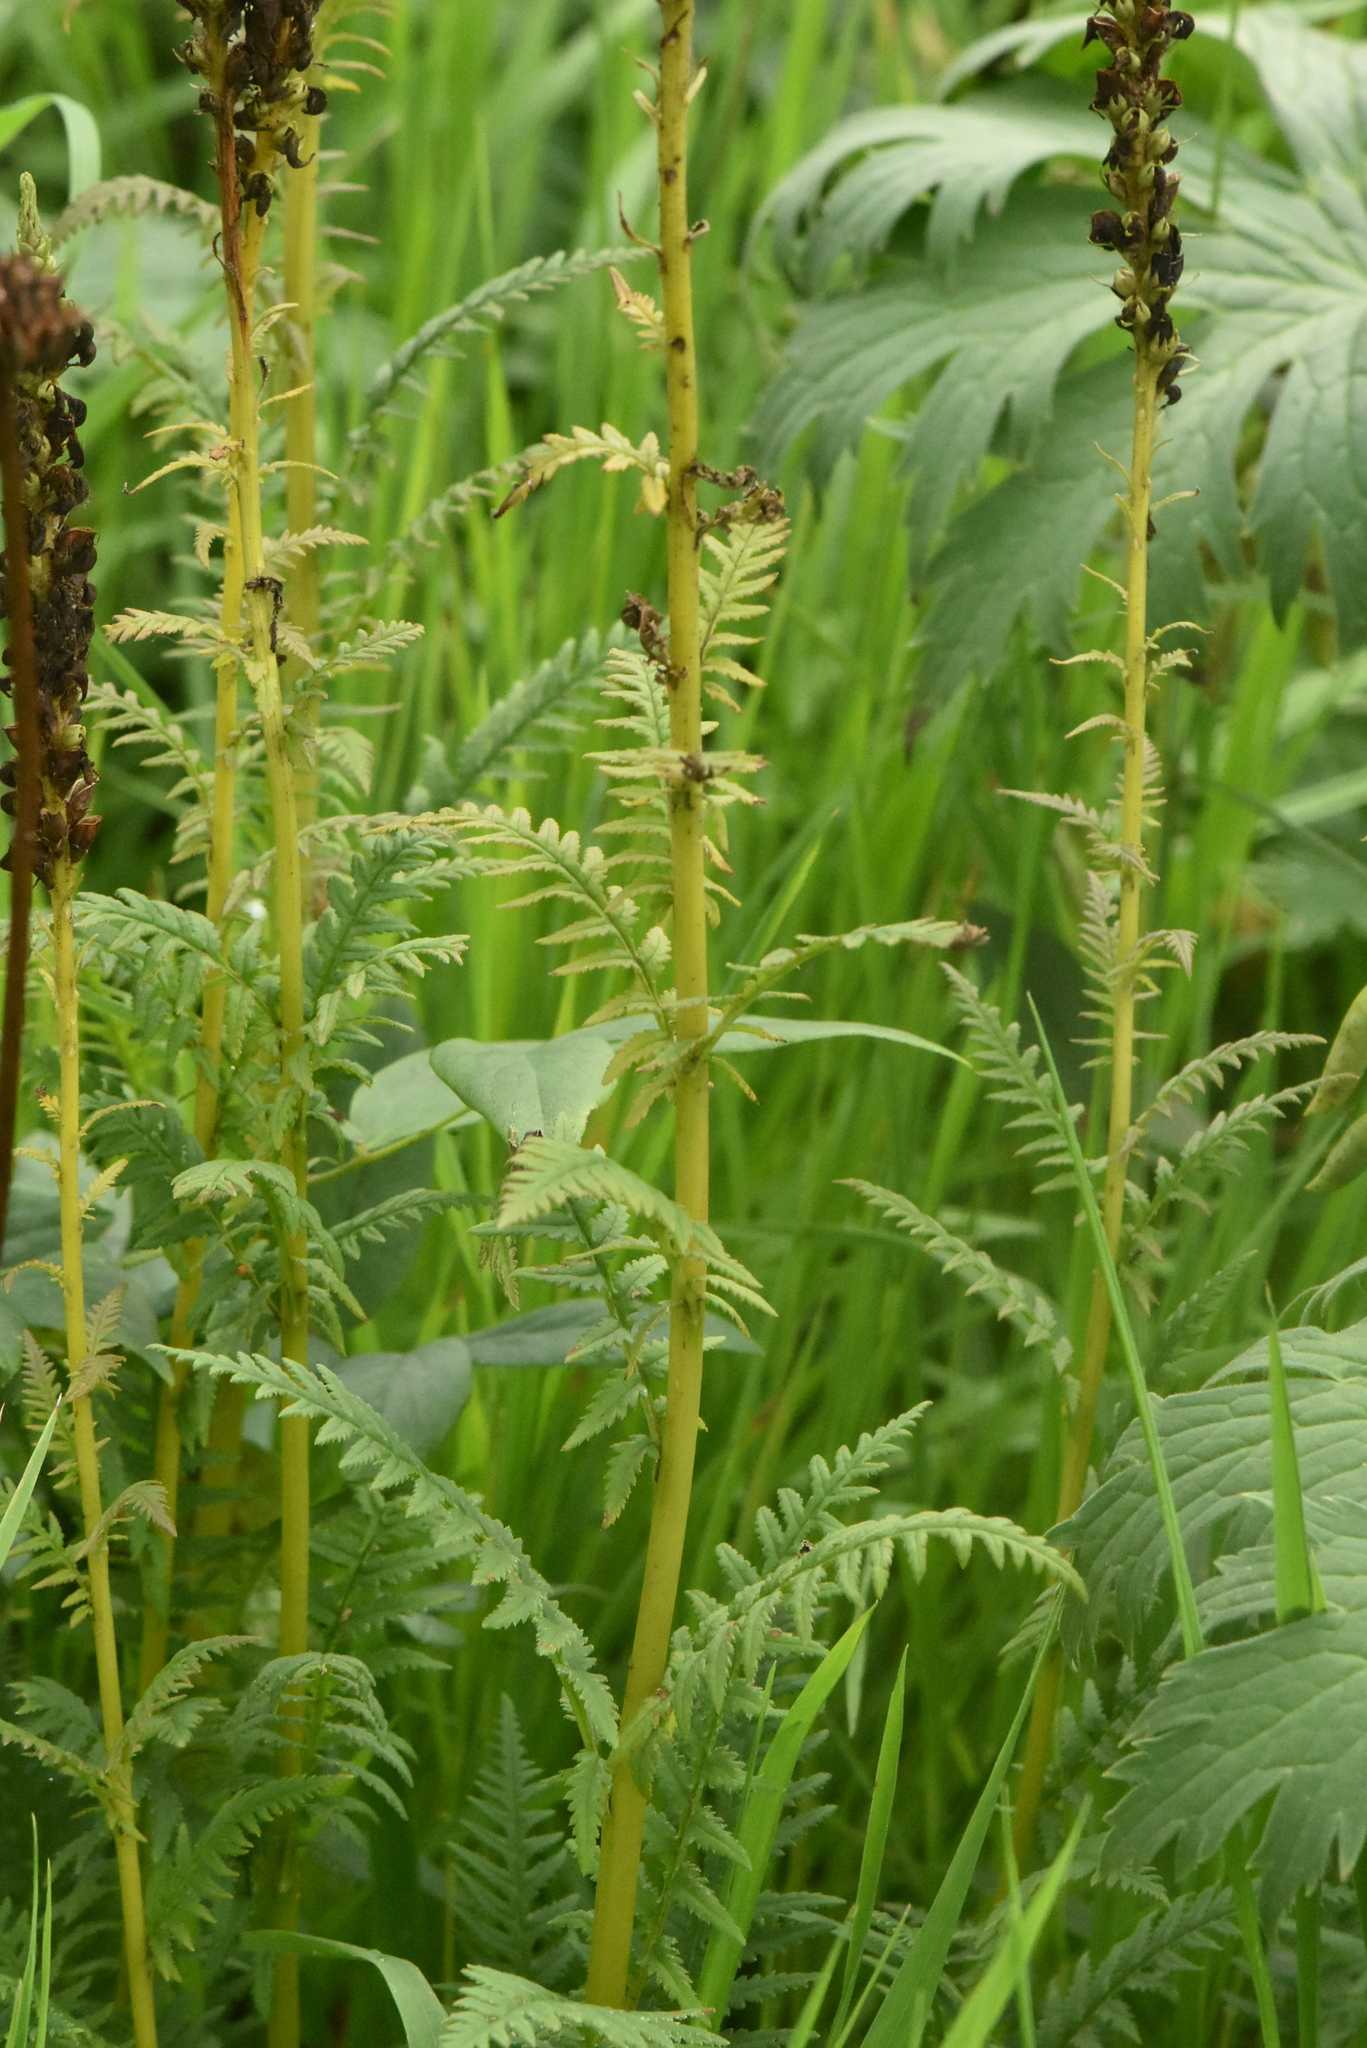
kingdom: Plantae
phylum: Tracheophyta
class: Magnoliopsida
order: Lamiales
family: Orobanchaceae
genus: Pedicularis
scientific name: Pedicularis incarnata
